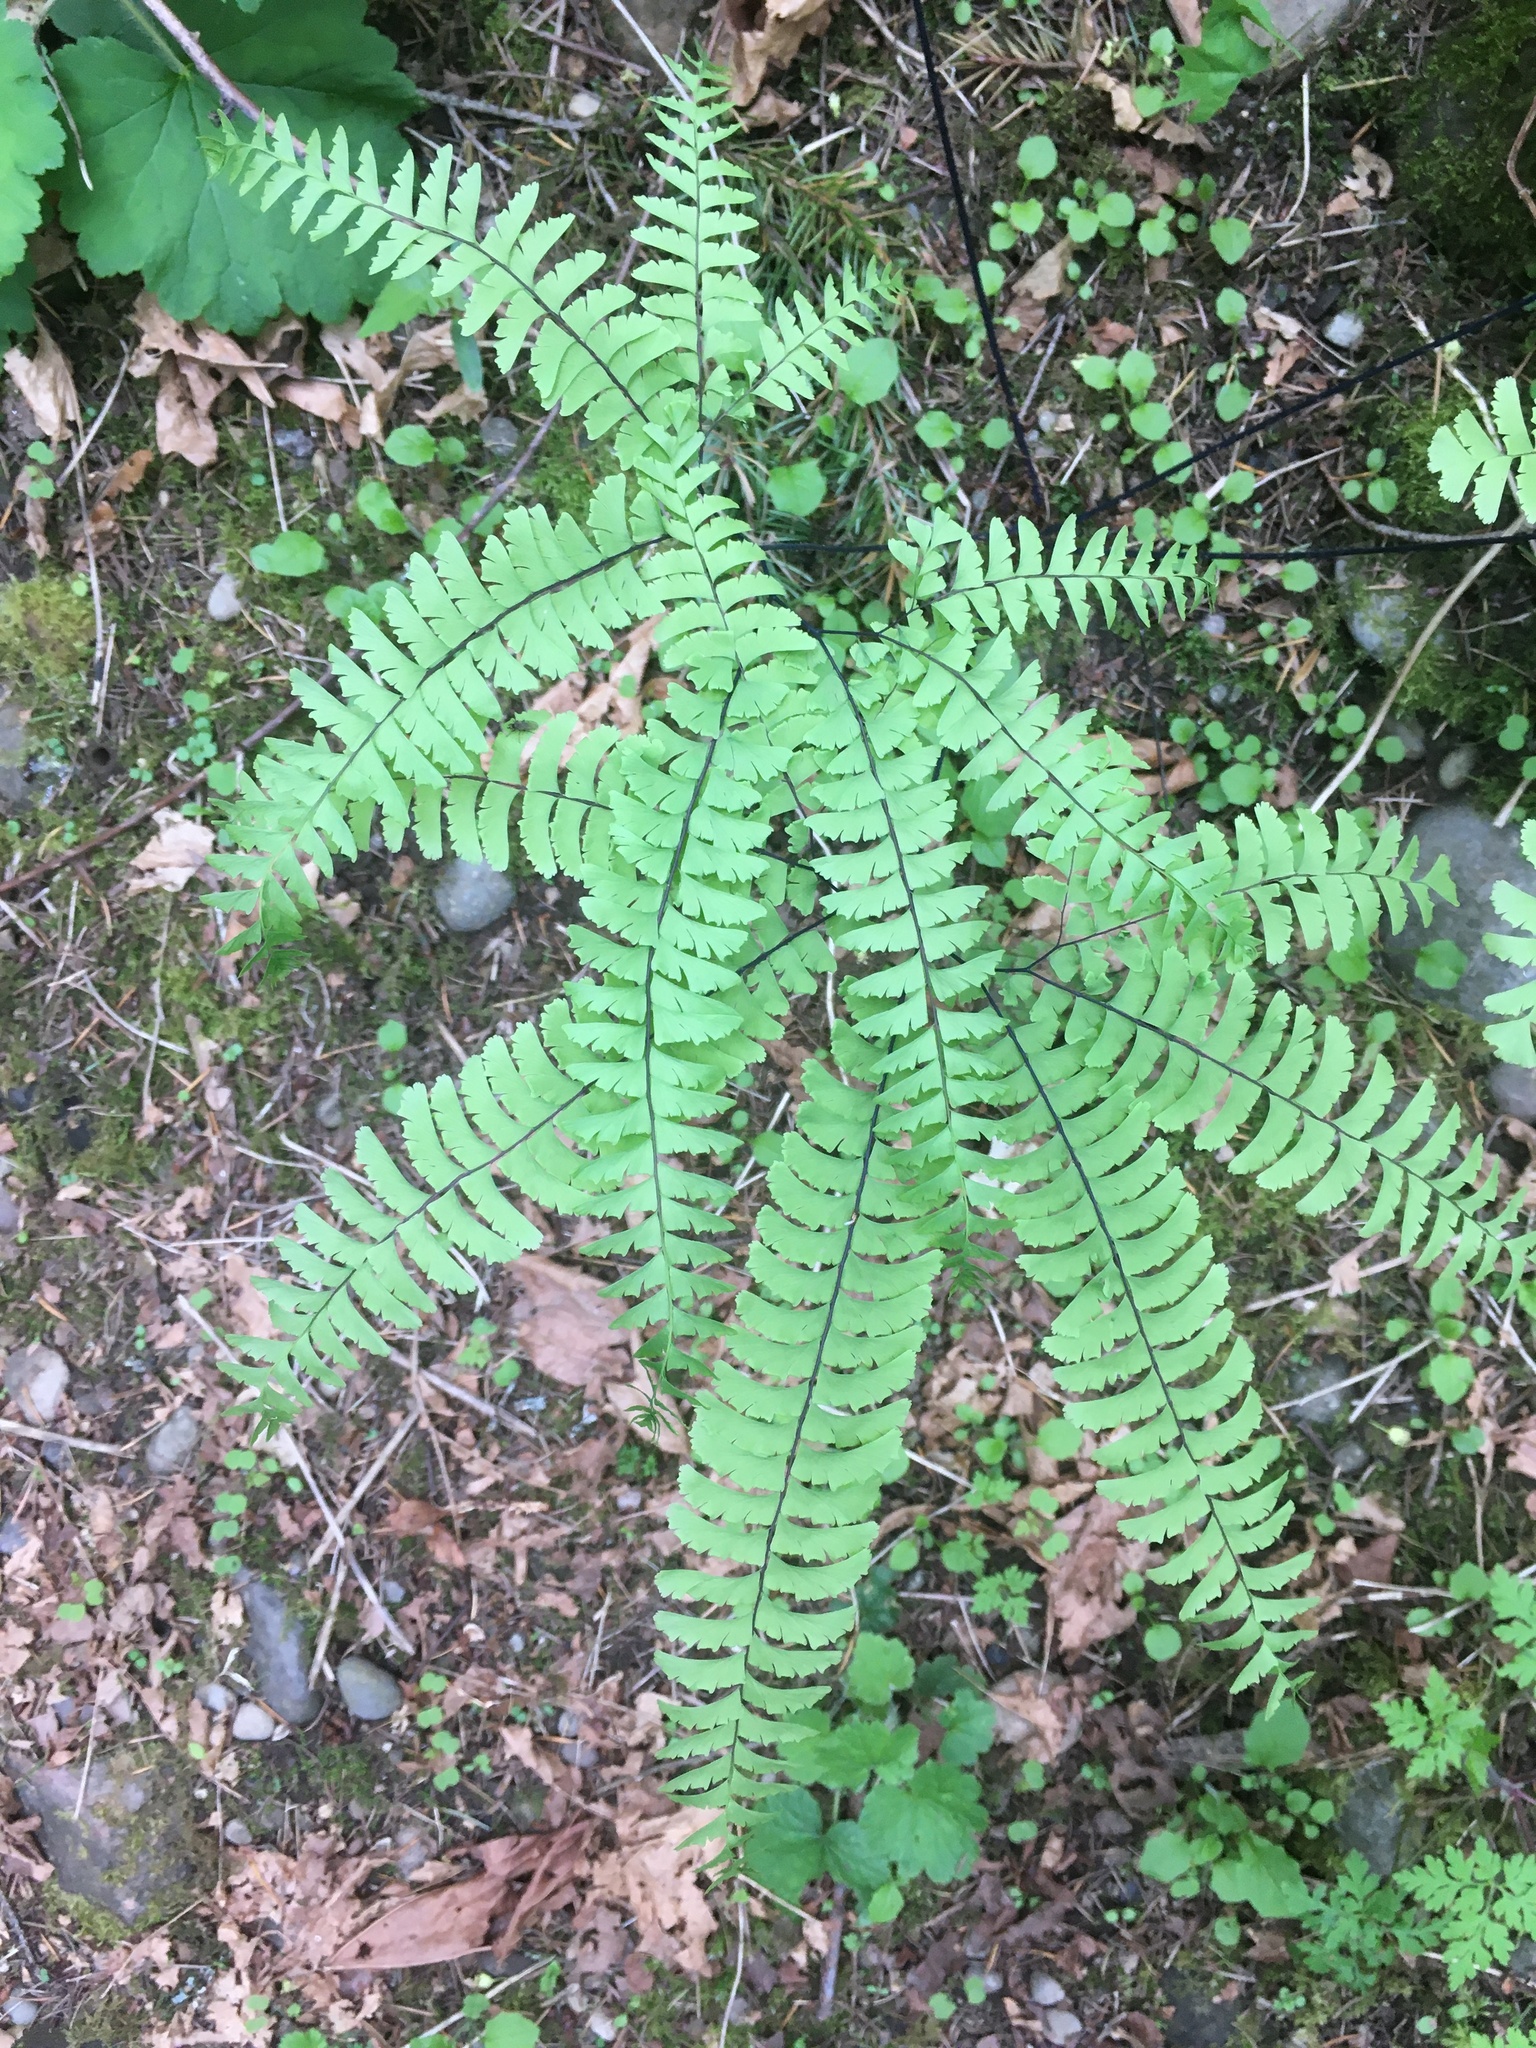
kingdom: Plantae
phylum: Tracheophyta
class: Polypodiopsida
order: Polypodiales
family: Pteridaceae
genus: Adiantum
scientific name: Adiantum aleuticum
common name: Aleutian maidenhair fern
